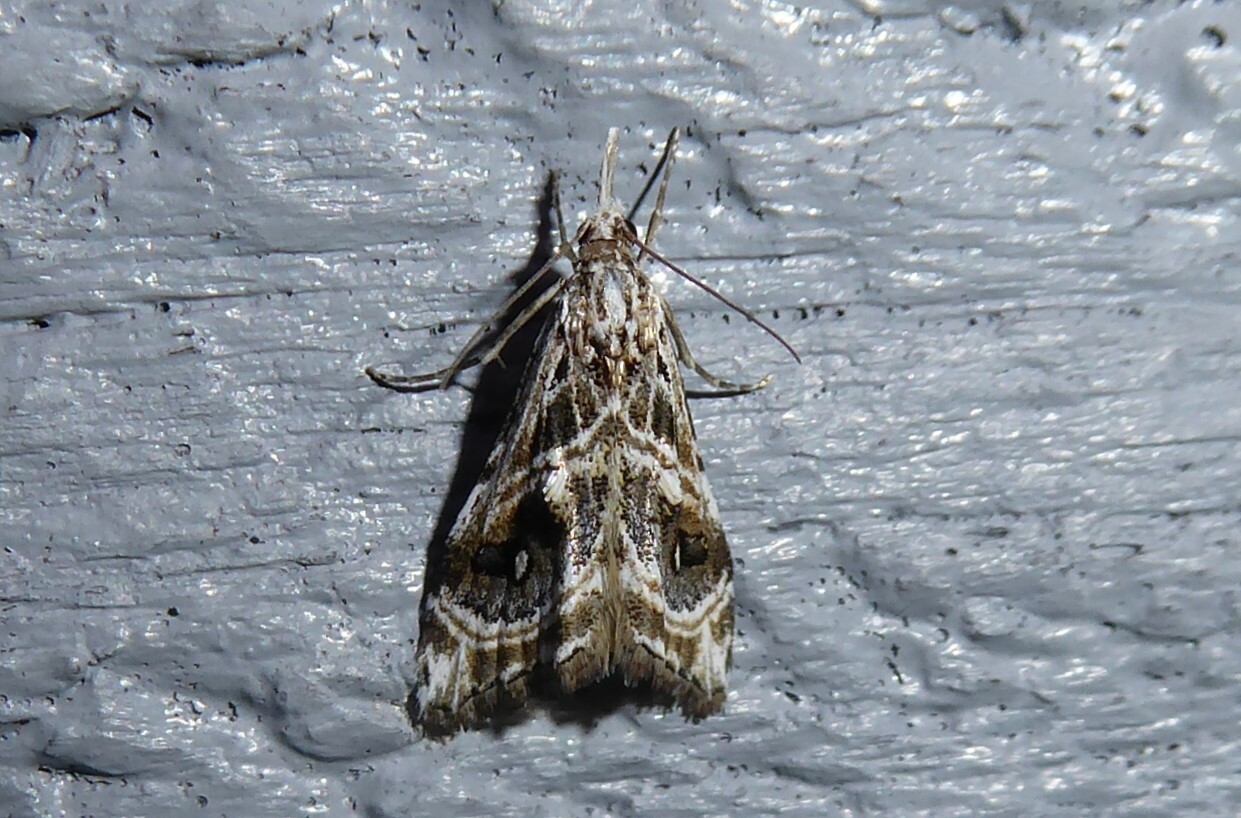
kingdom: Animalia
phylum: Arthropoda
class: Insecta
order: Lepidoptera
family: Crambidae
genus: Gadira
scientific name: Gadira acerella
